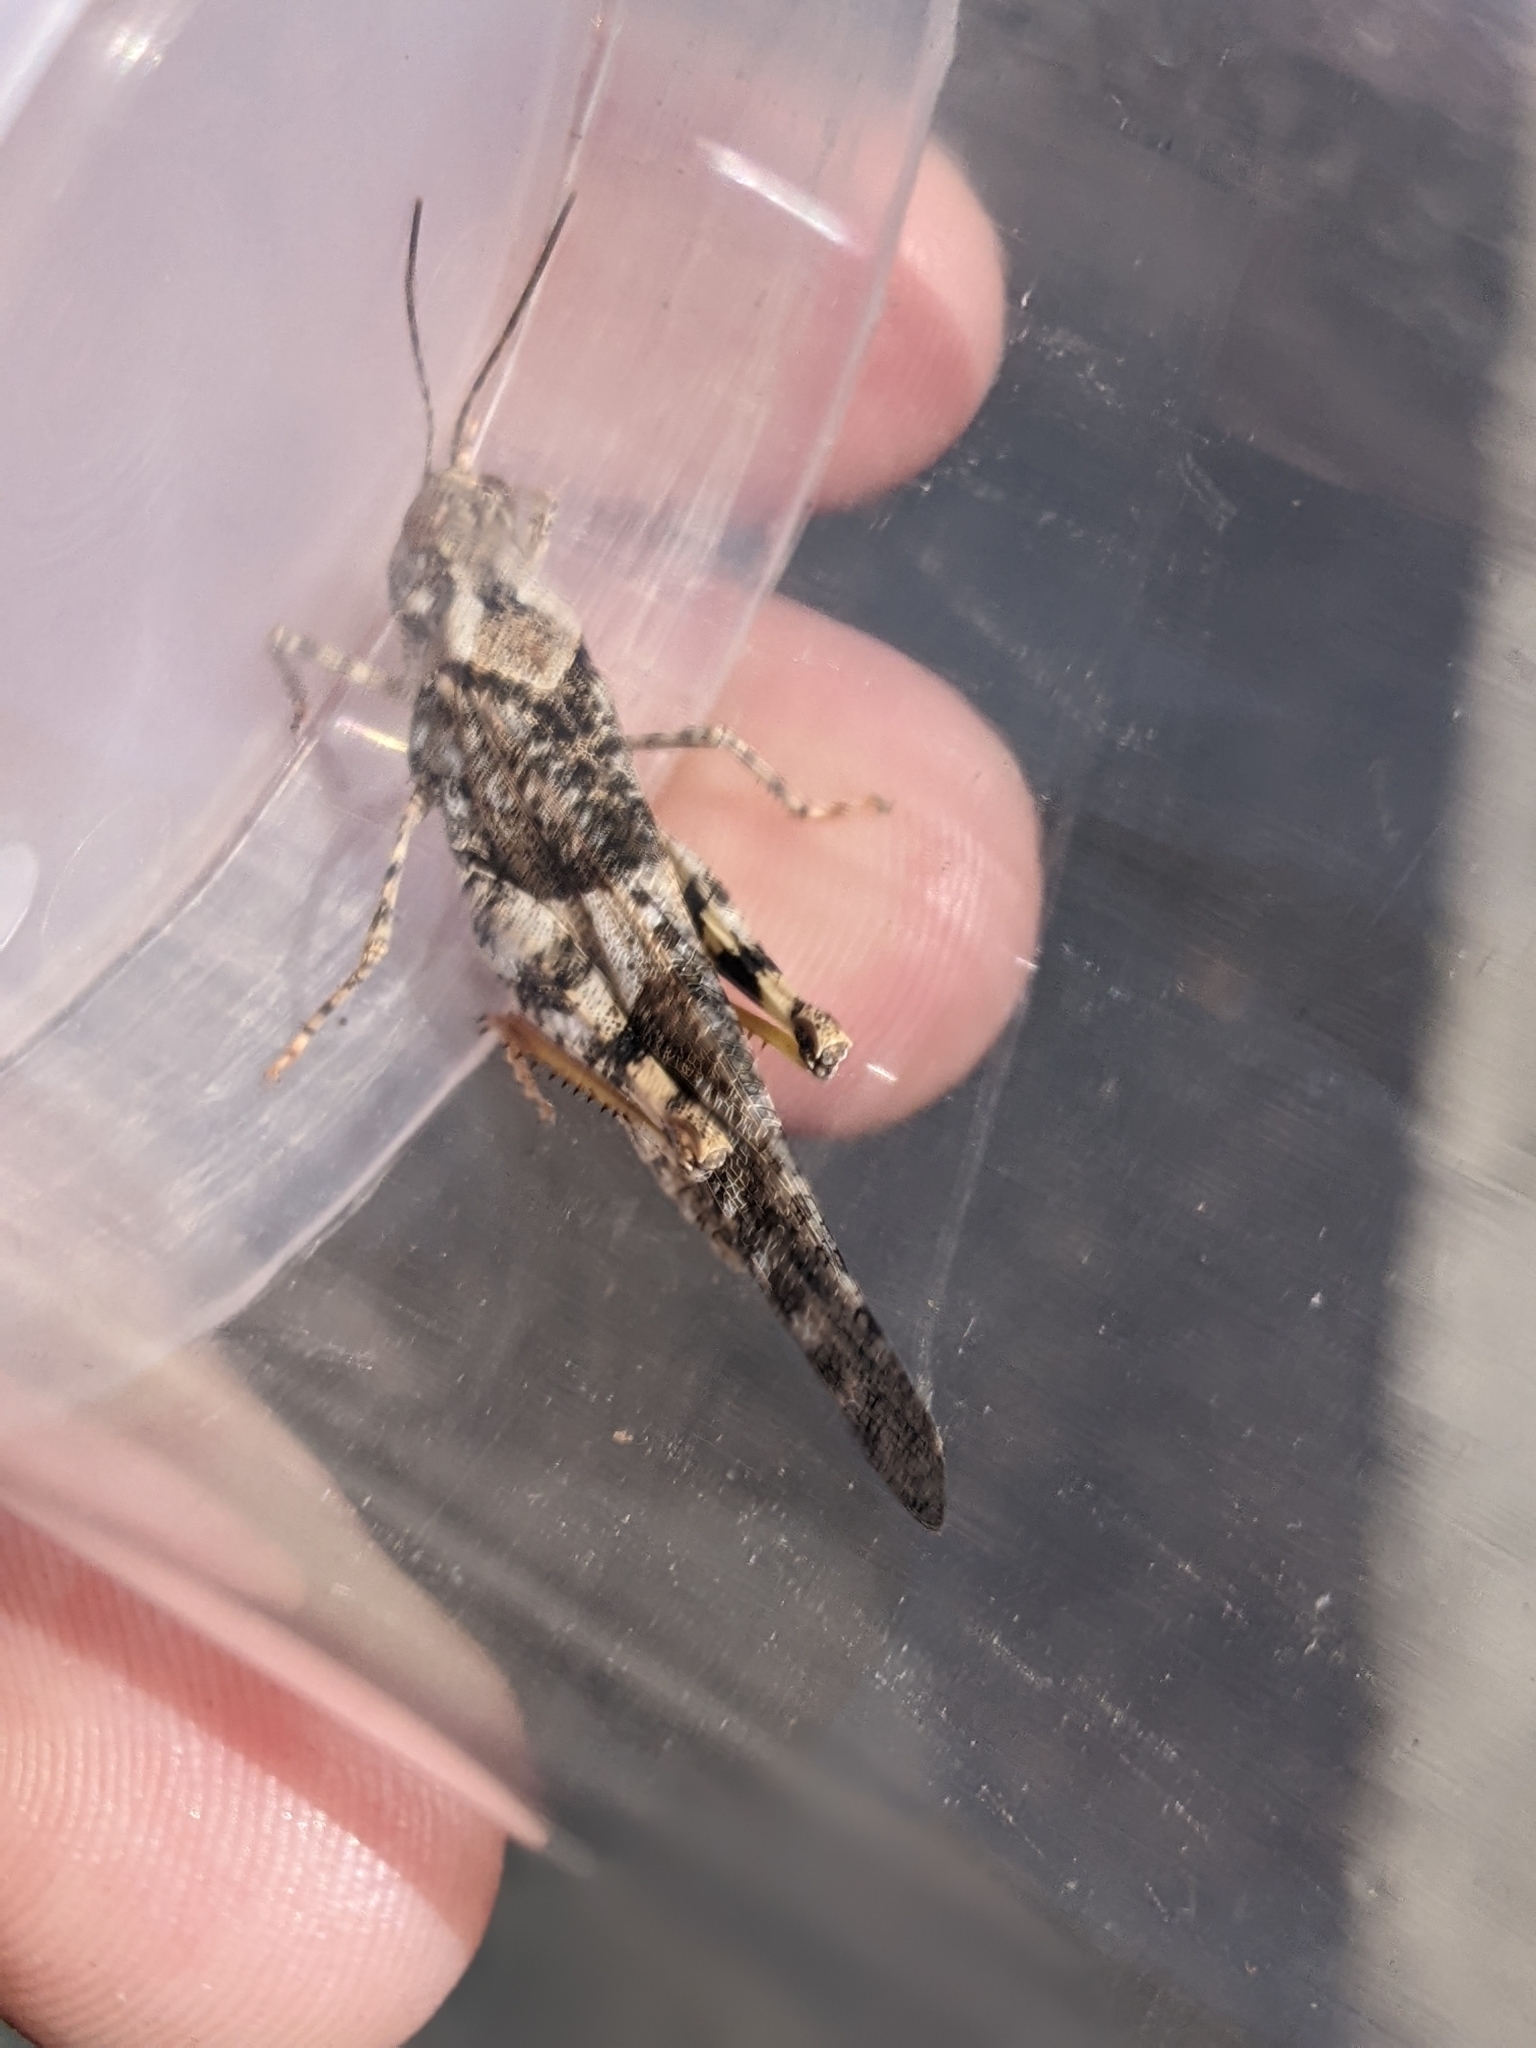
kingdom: Animalia
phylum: Arthropoda
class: Insecta
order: Orthoptera
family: Acrididae
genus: Trimerotropis
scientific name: Trimerotropis pallidipennis
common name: Pallid-winged grasshopper
